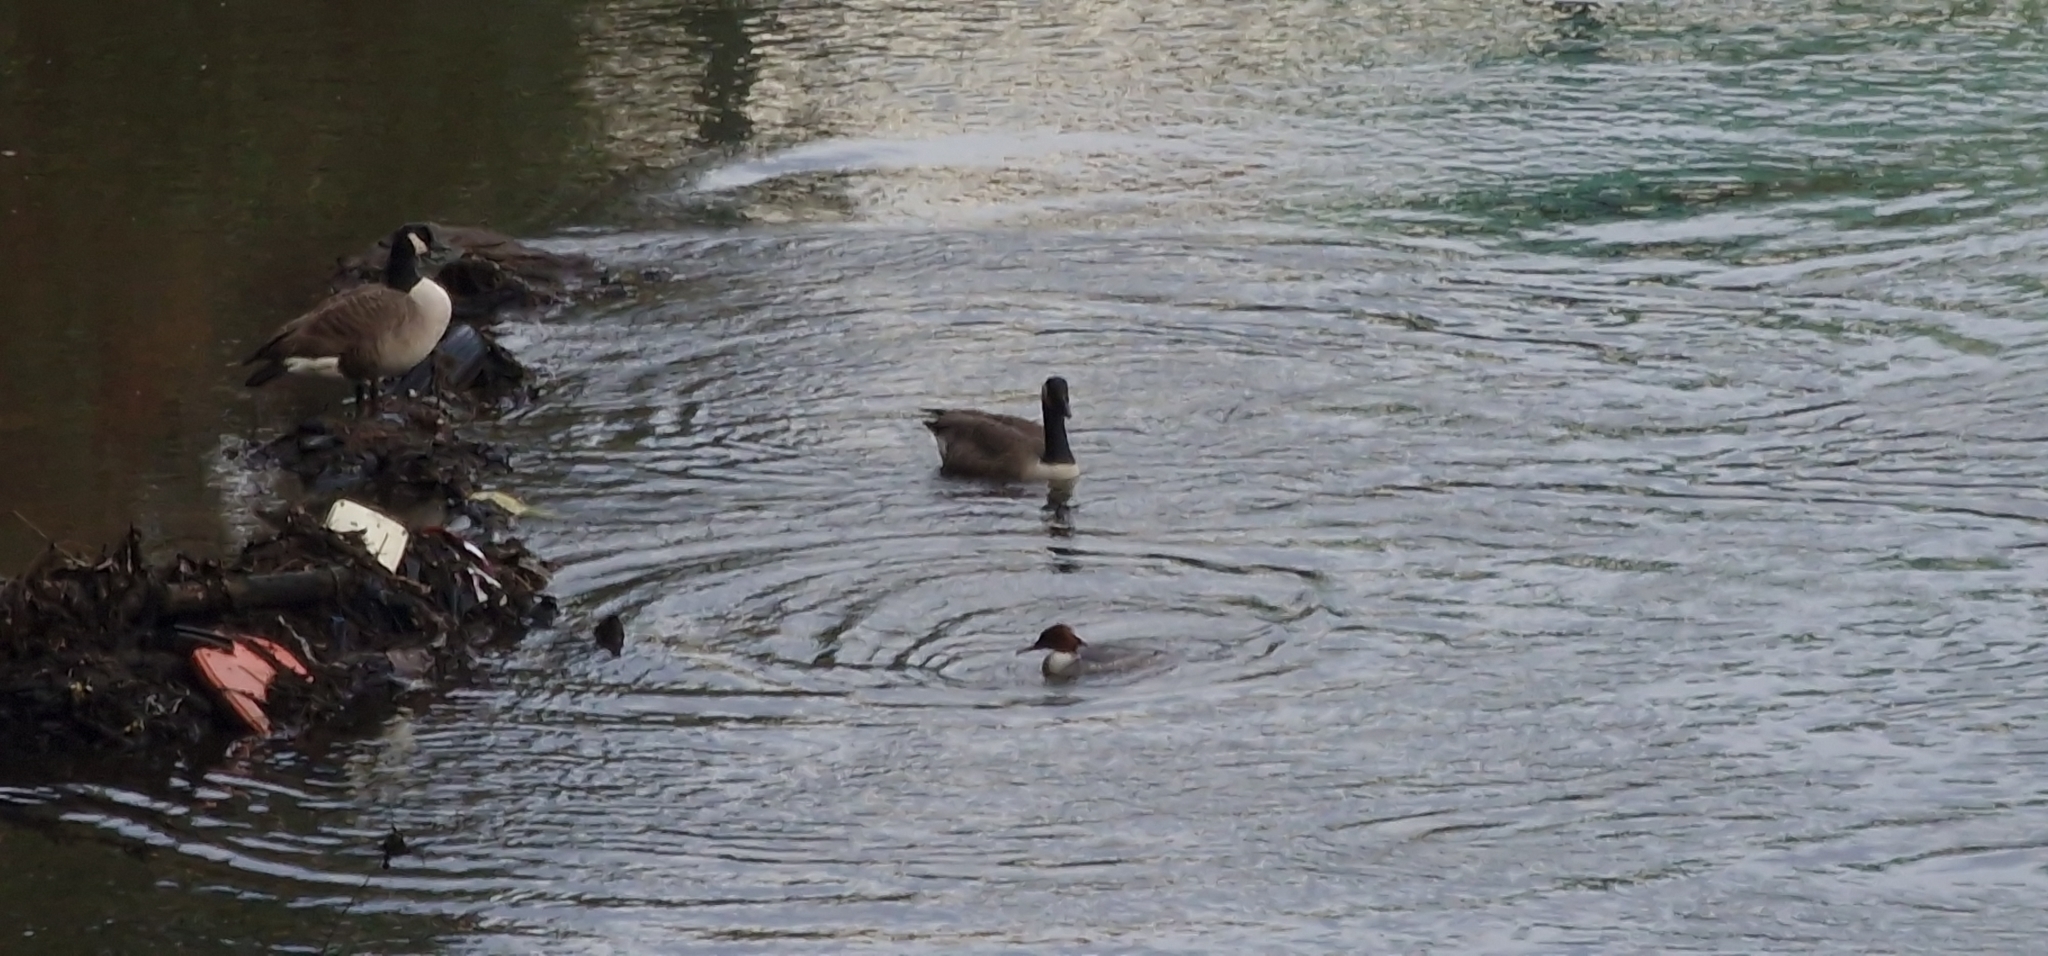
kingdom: Animalia
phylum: Chordata
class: Aves
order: Anseriformes
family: Anatidae
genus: Branta
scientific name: Branta canadensis
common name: Canada goose
